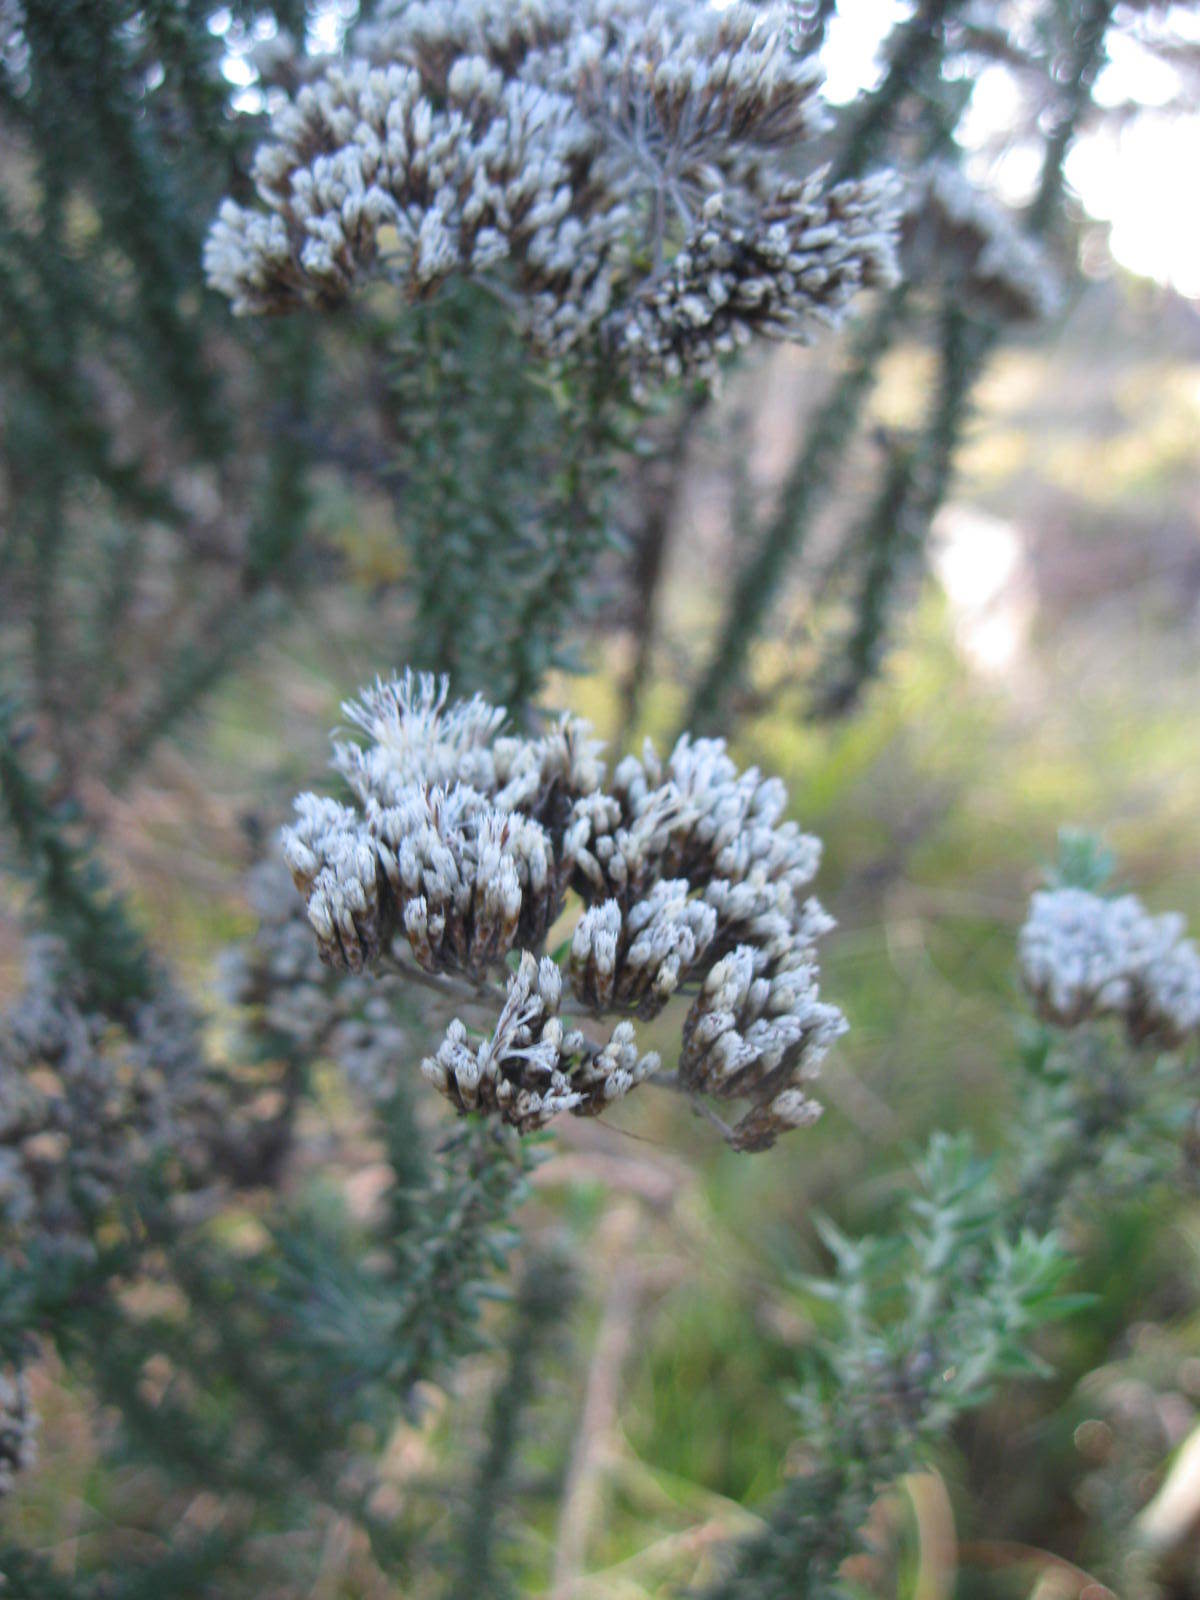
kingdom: Plantae
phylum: Tracheophyta
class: Magnoliopsida
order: Asterales
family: Asteraceae
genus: Metalasia
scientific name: Metalasia densa
